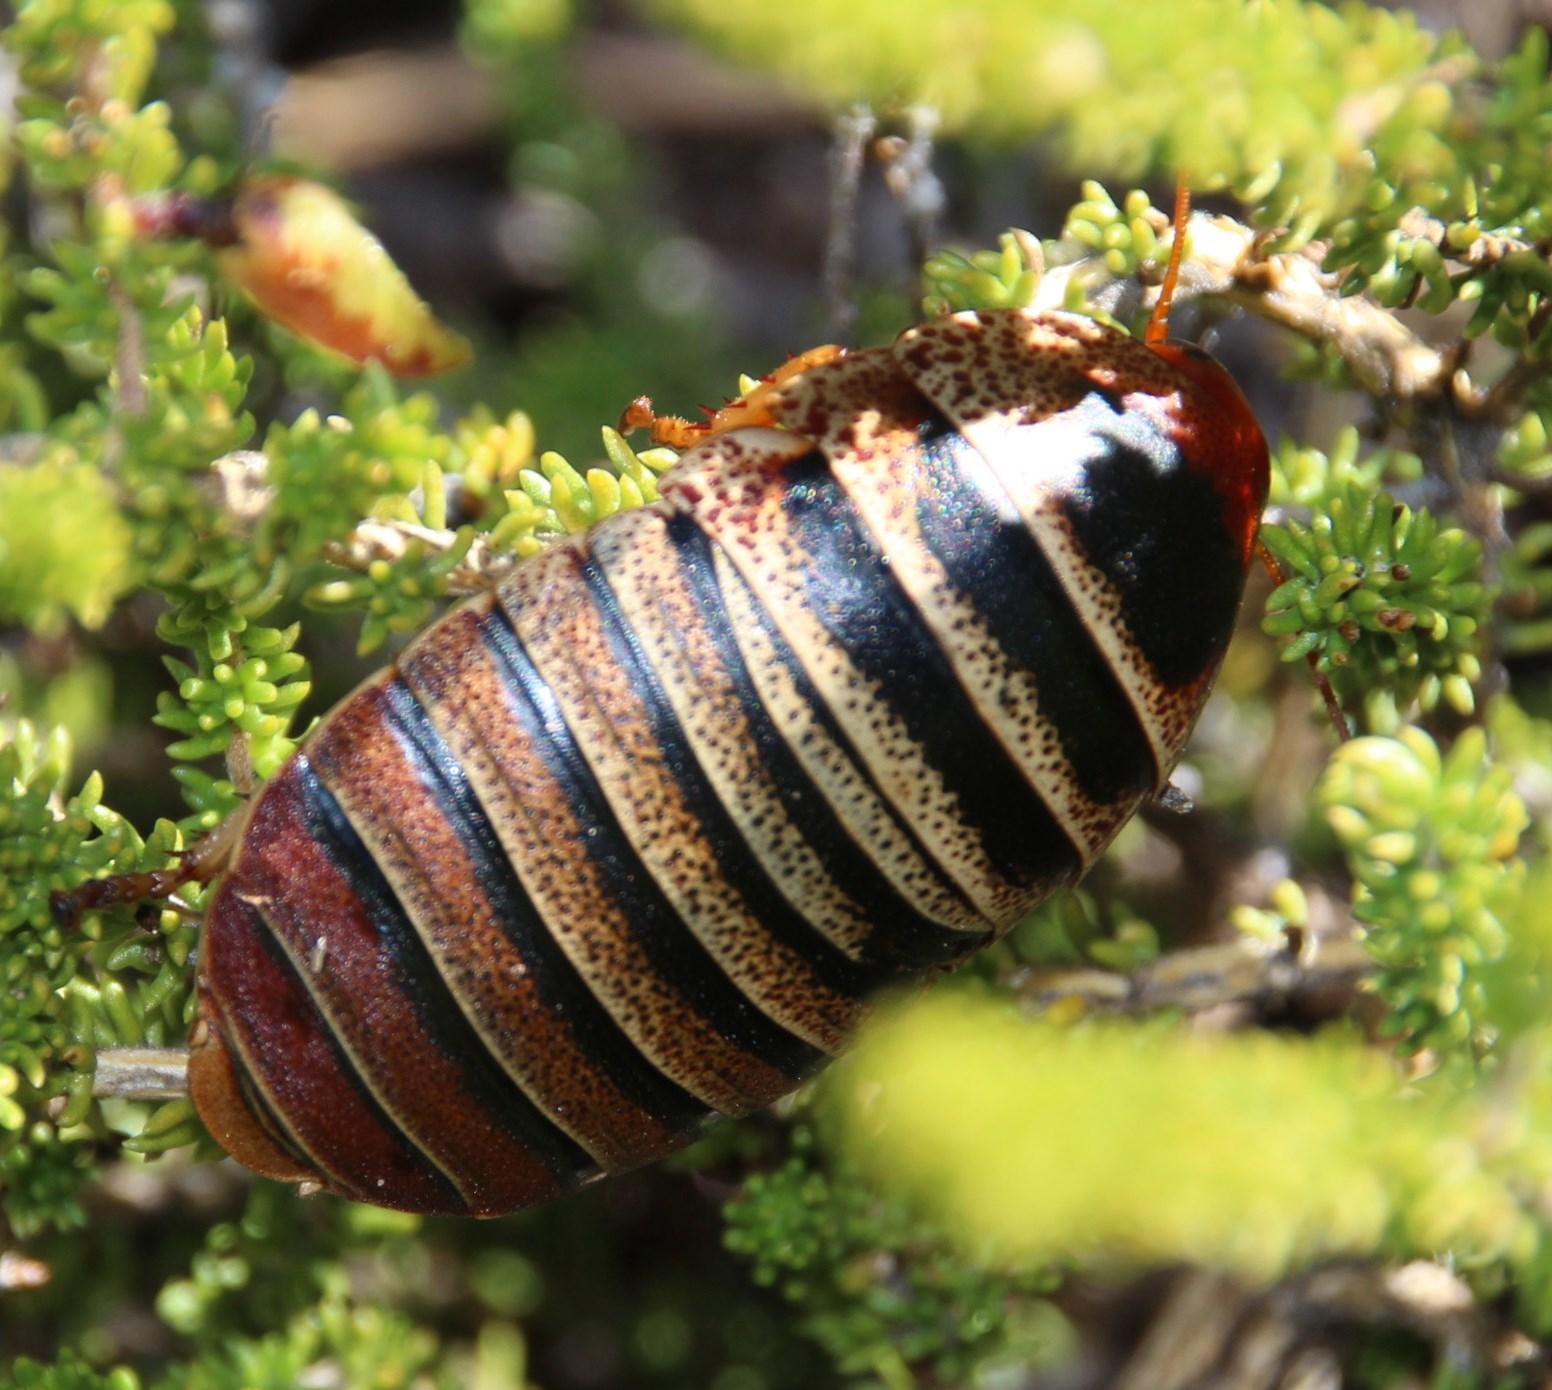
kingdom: Animalia
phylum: Arthropoda
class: Insecta
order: Blattodea
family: Blaberidae
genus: Aptera
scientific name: Aptera fusca
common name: Cape mountain cockroach
